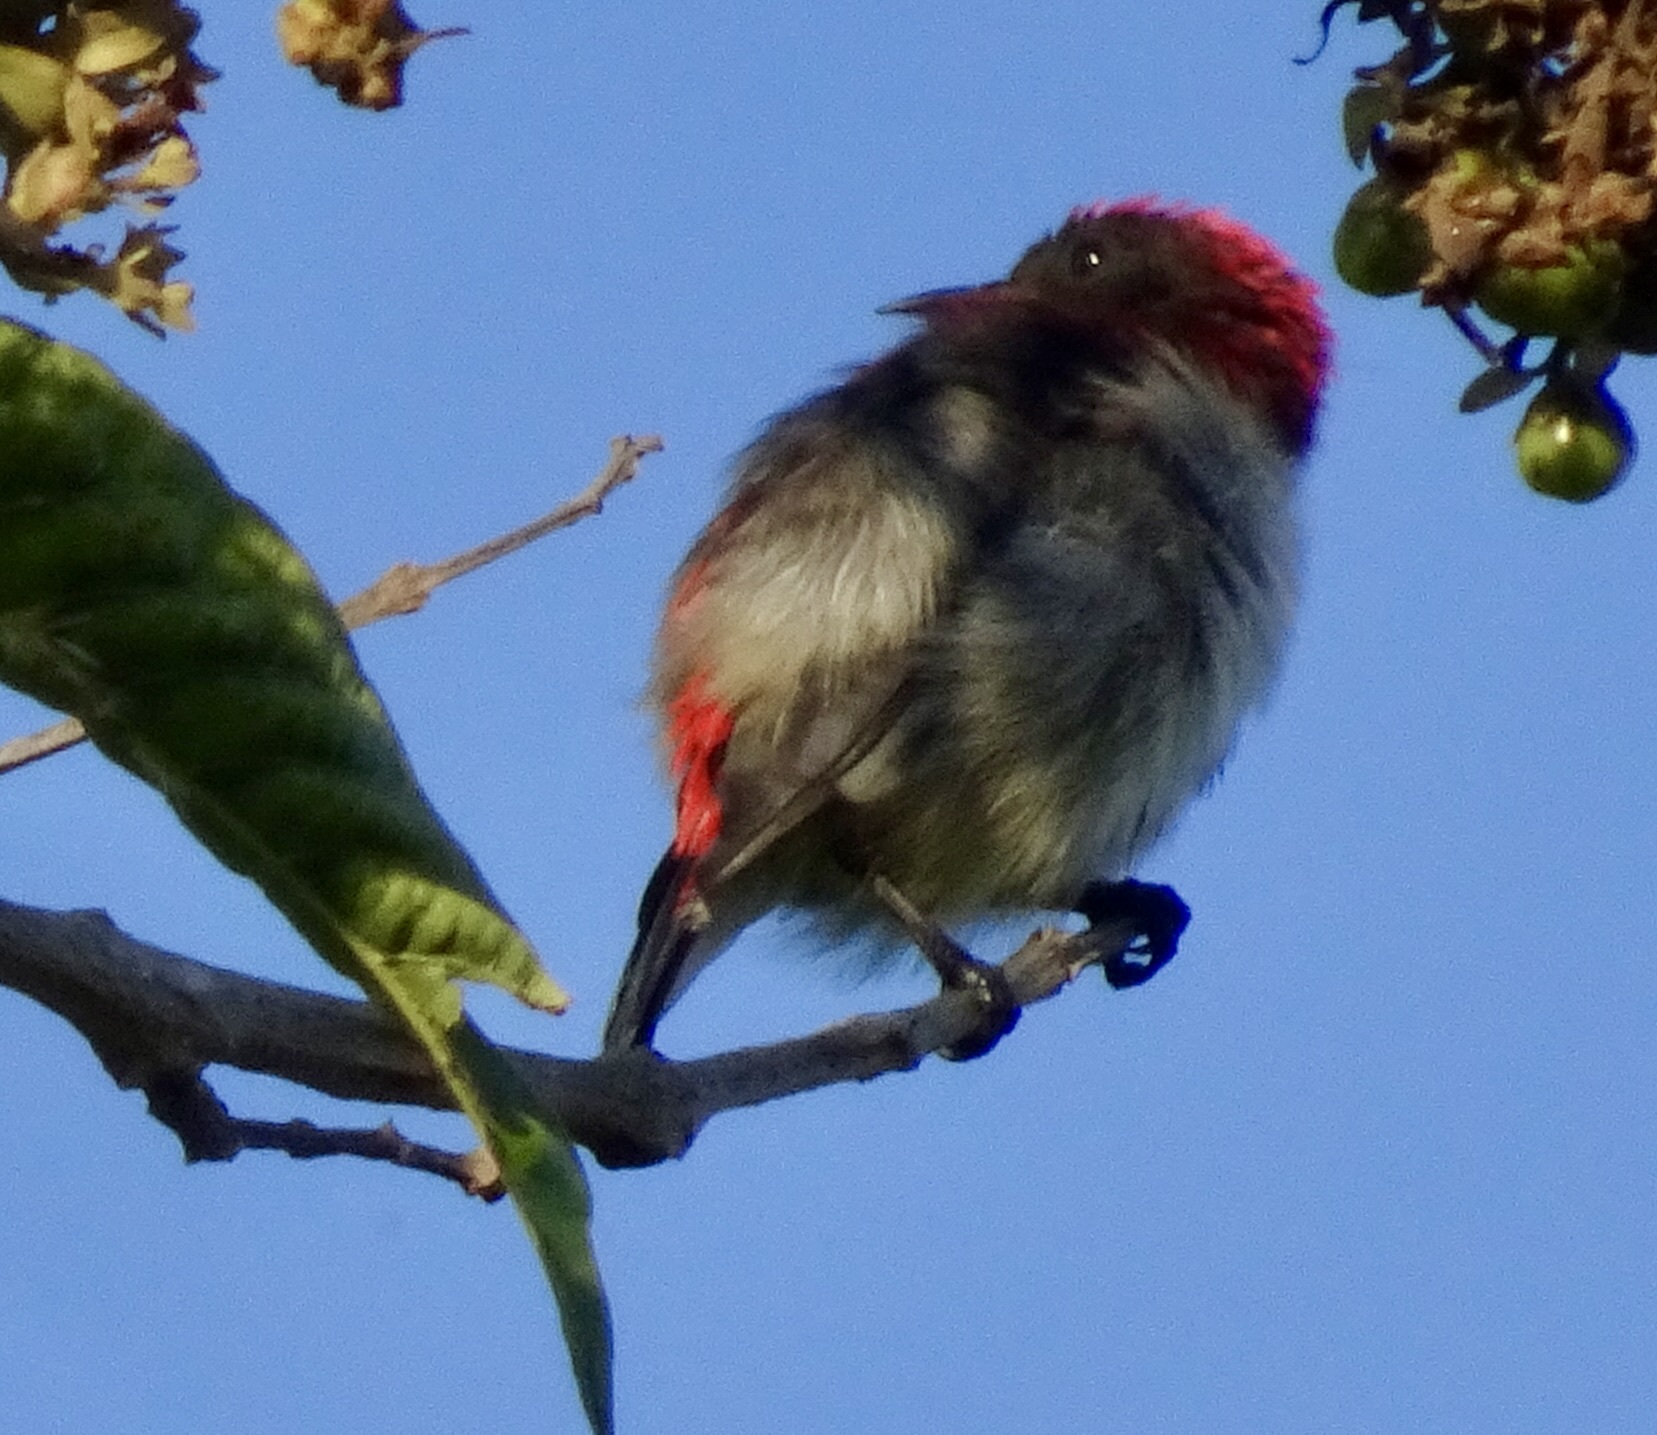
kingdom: Animalia
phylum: Chordata
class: Aves
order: Passeriformes
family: Dicaeidae
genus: Dicaeum
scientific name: Dicaeum cruentatum
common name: Scarlet-backed flowerpecker
